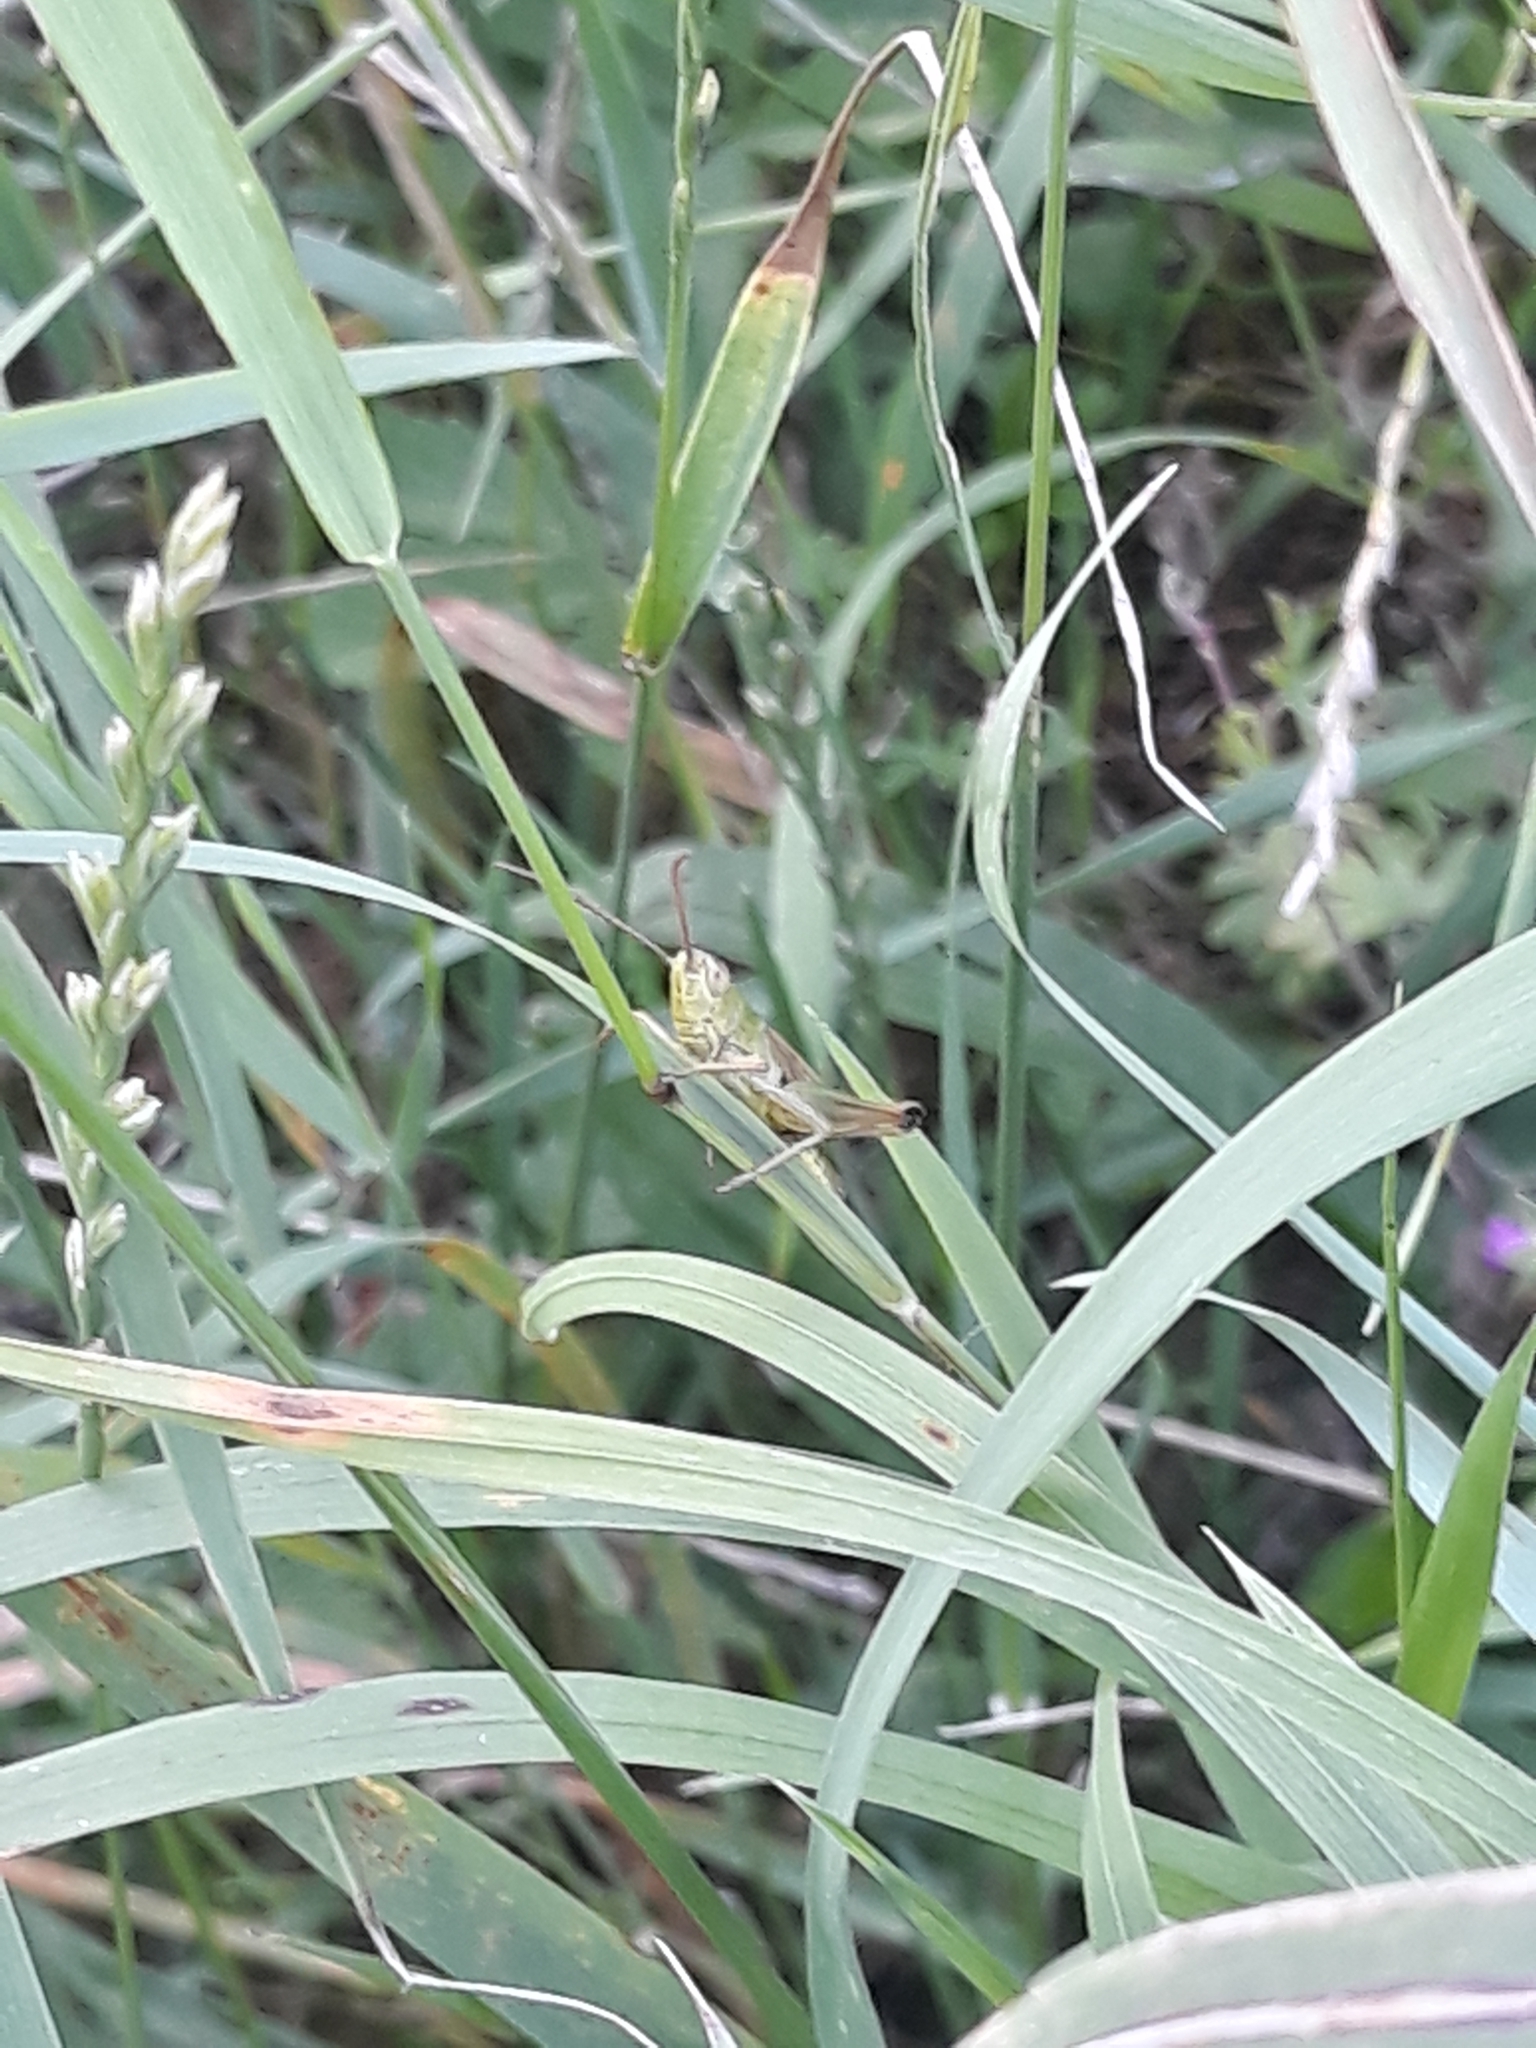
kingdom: Animalia
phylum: Arthropoda
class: Insecta
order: Orthoptera
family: Acrididae
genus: Pseudochorthippus
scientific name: Pseudochorthippus parallelus
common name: Meadow grasshopper
